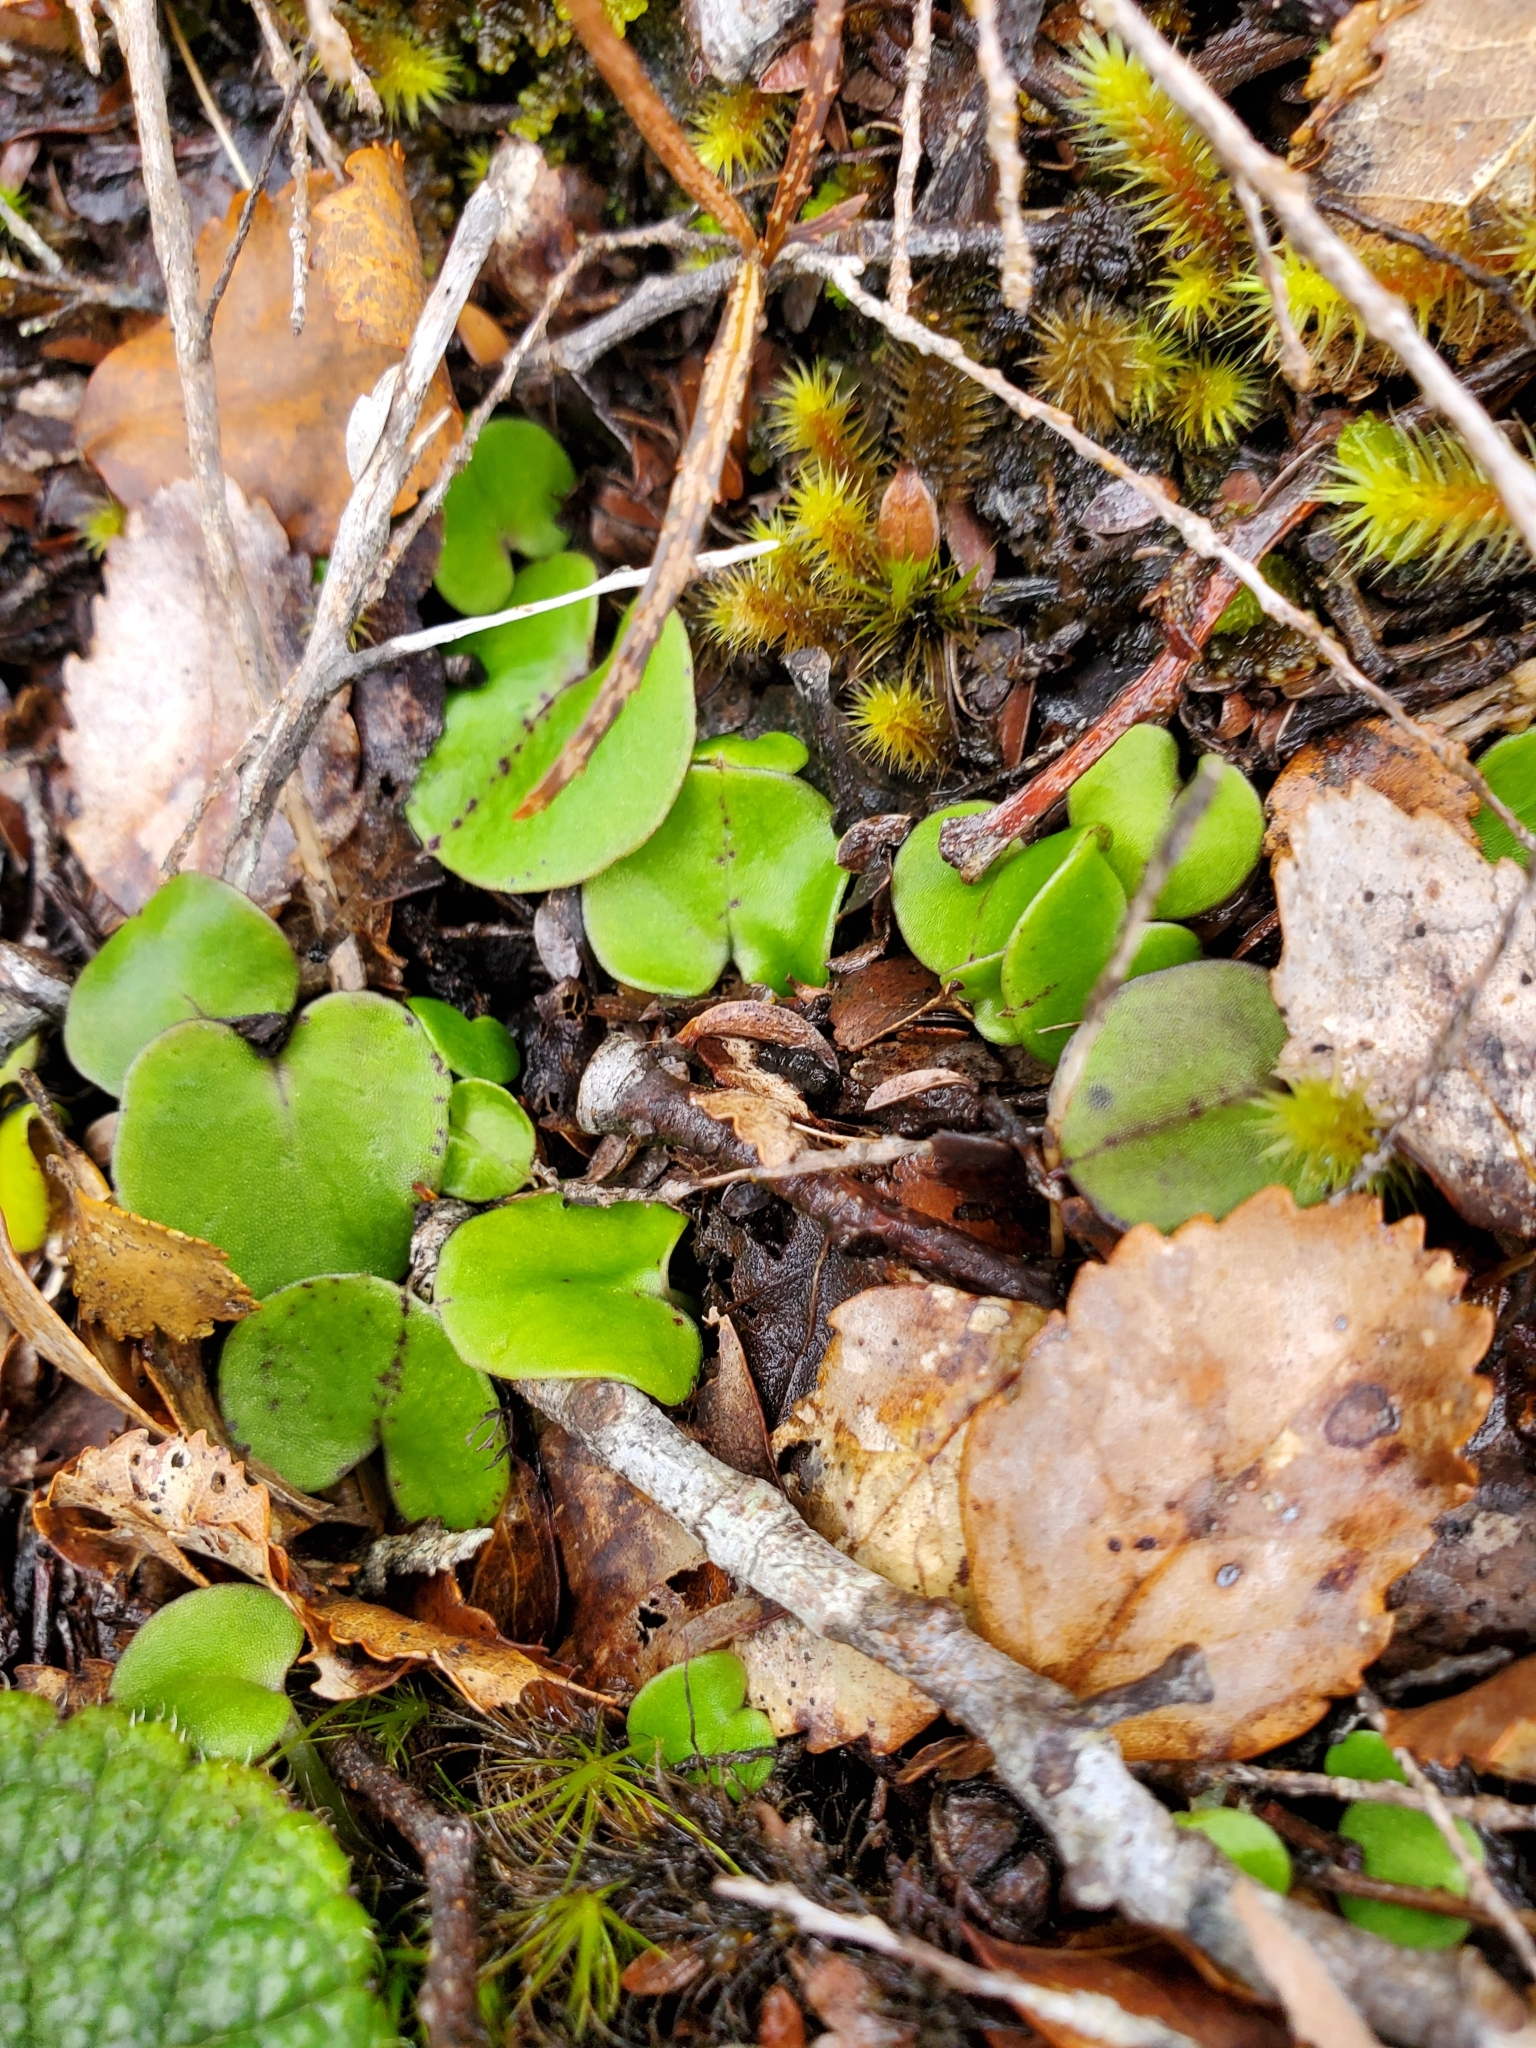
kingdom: Plantae
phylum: Tracheophyta
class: Liliopsida
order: Asparagales
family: Orchidaceae
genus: Corybas
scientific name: Corybas macranthus
